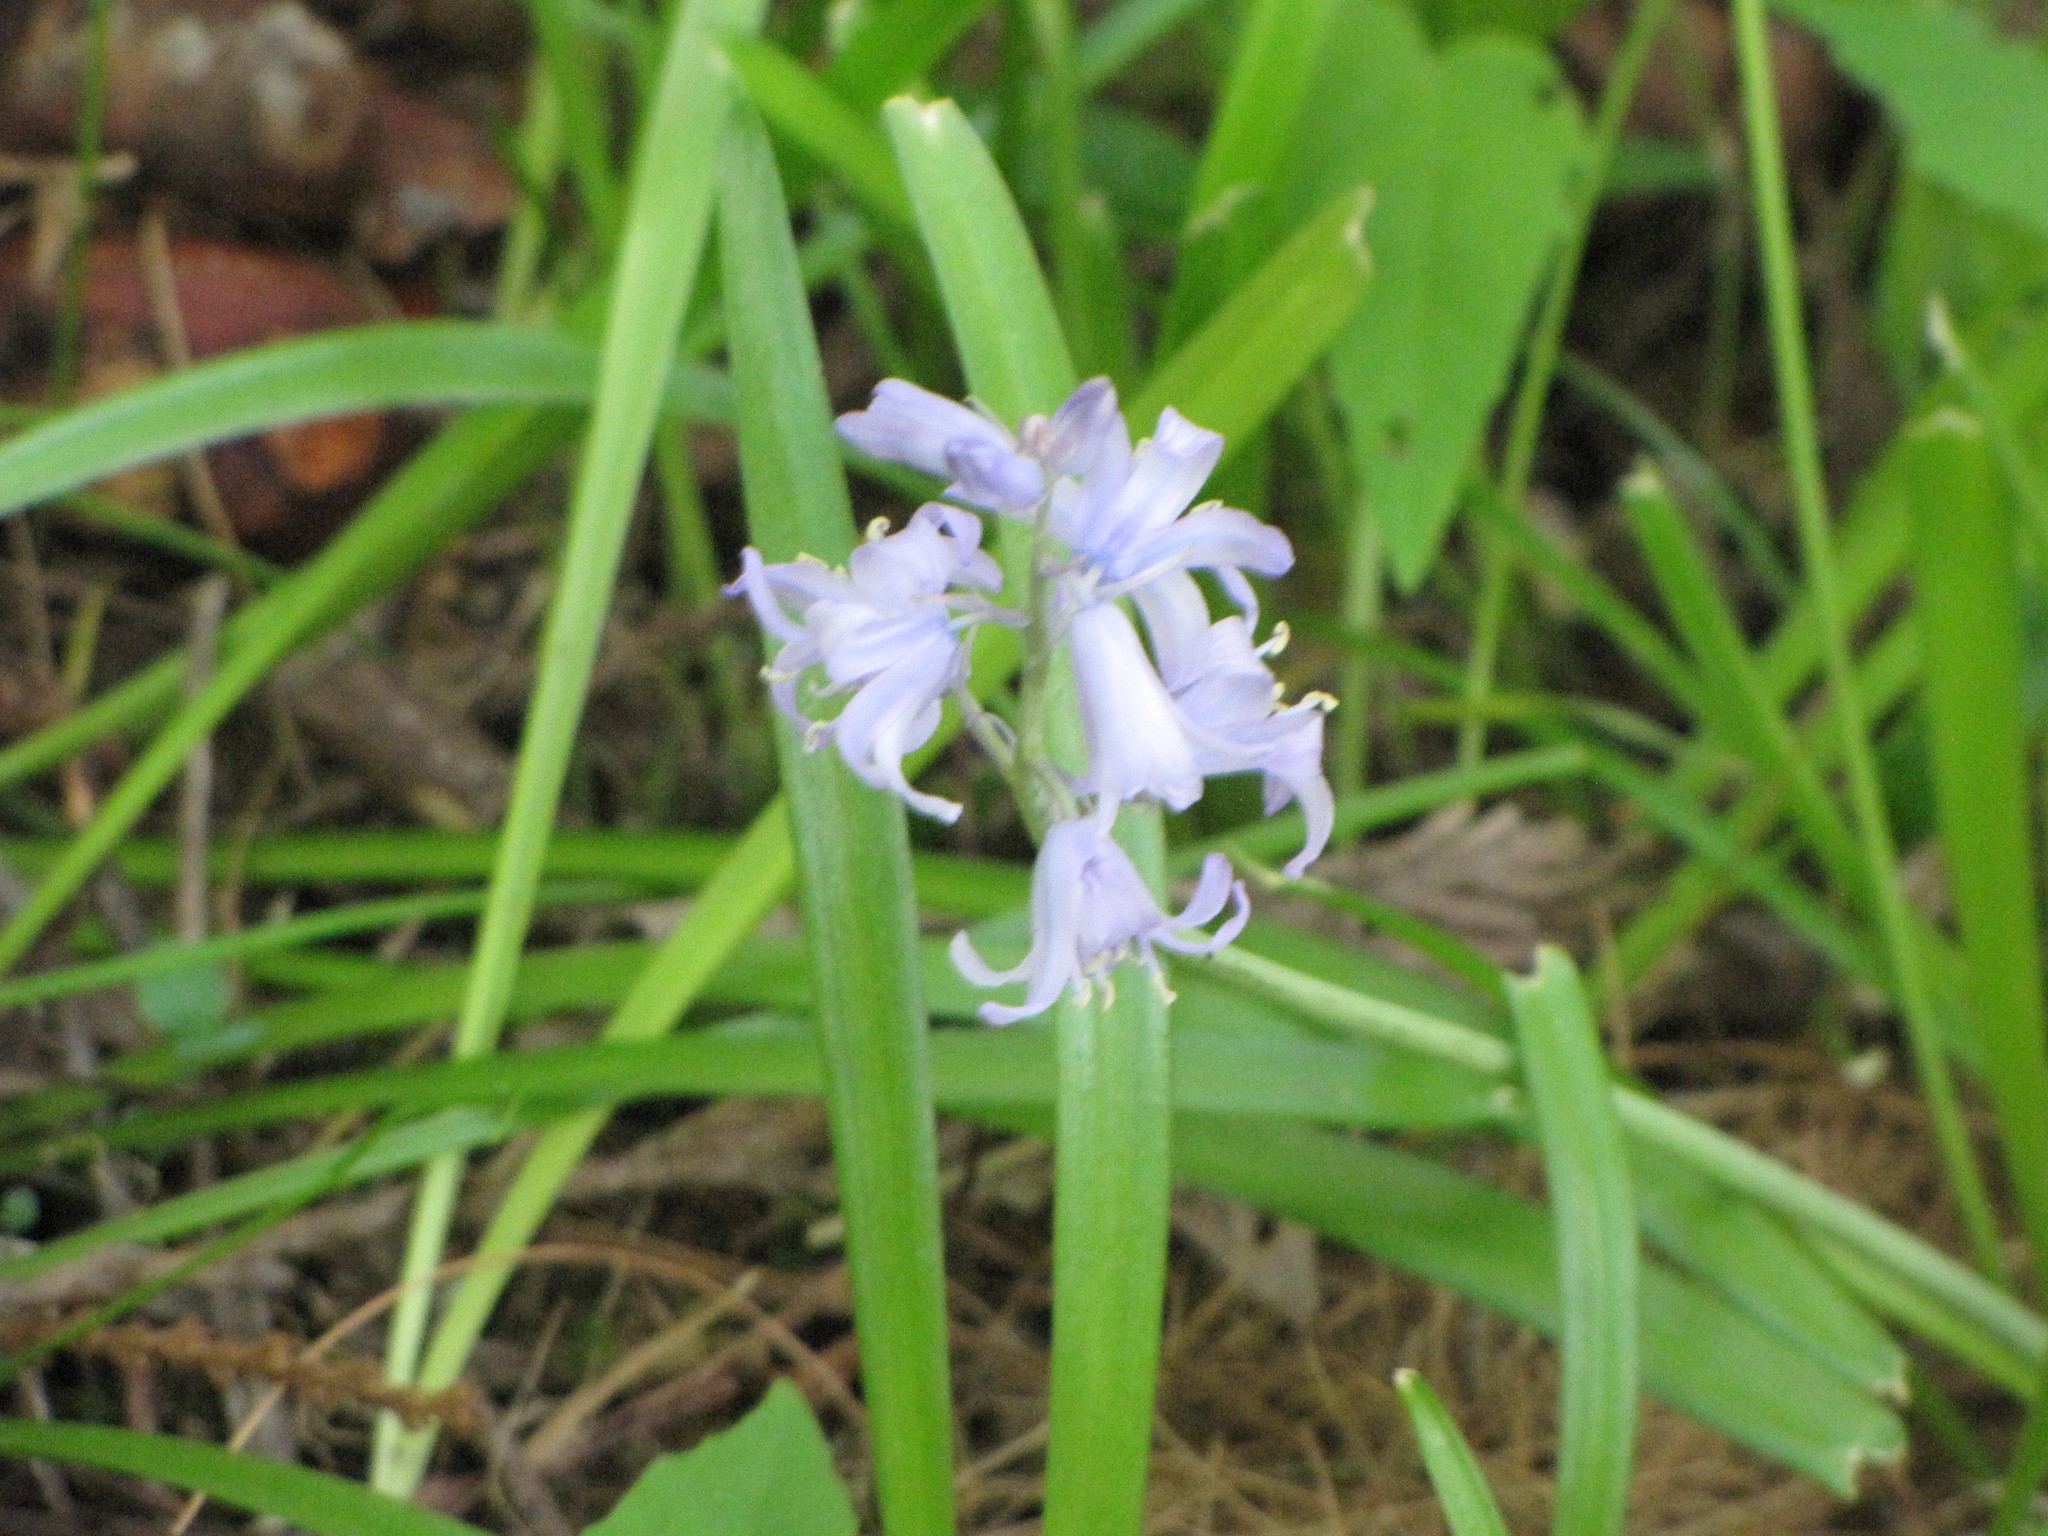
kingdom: Plantae
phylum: Tracheophyta
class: Liliopsida
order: Asparagales
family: Asparagaceae
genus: Hyacinthoides
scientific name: Hyacinthoides massartiana
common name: Hyacinthoides
